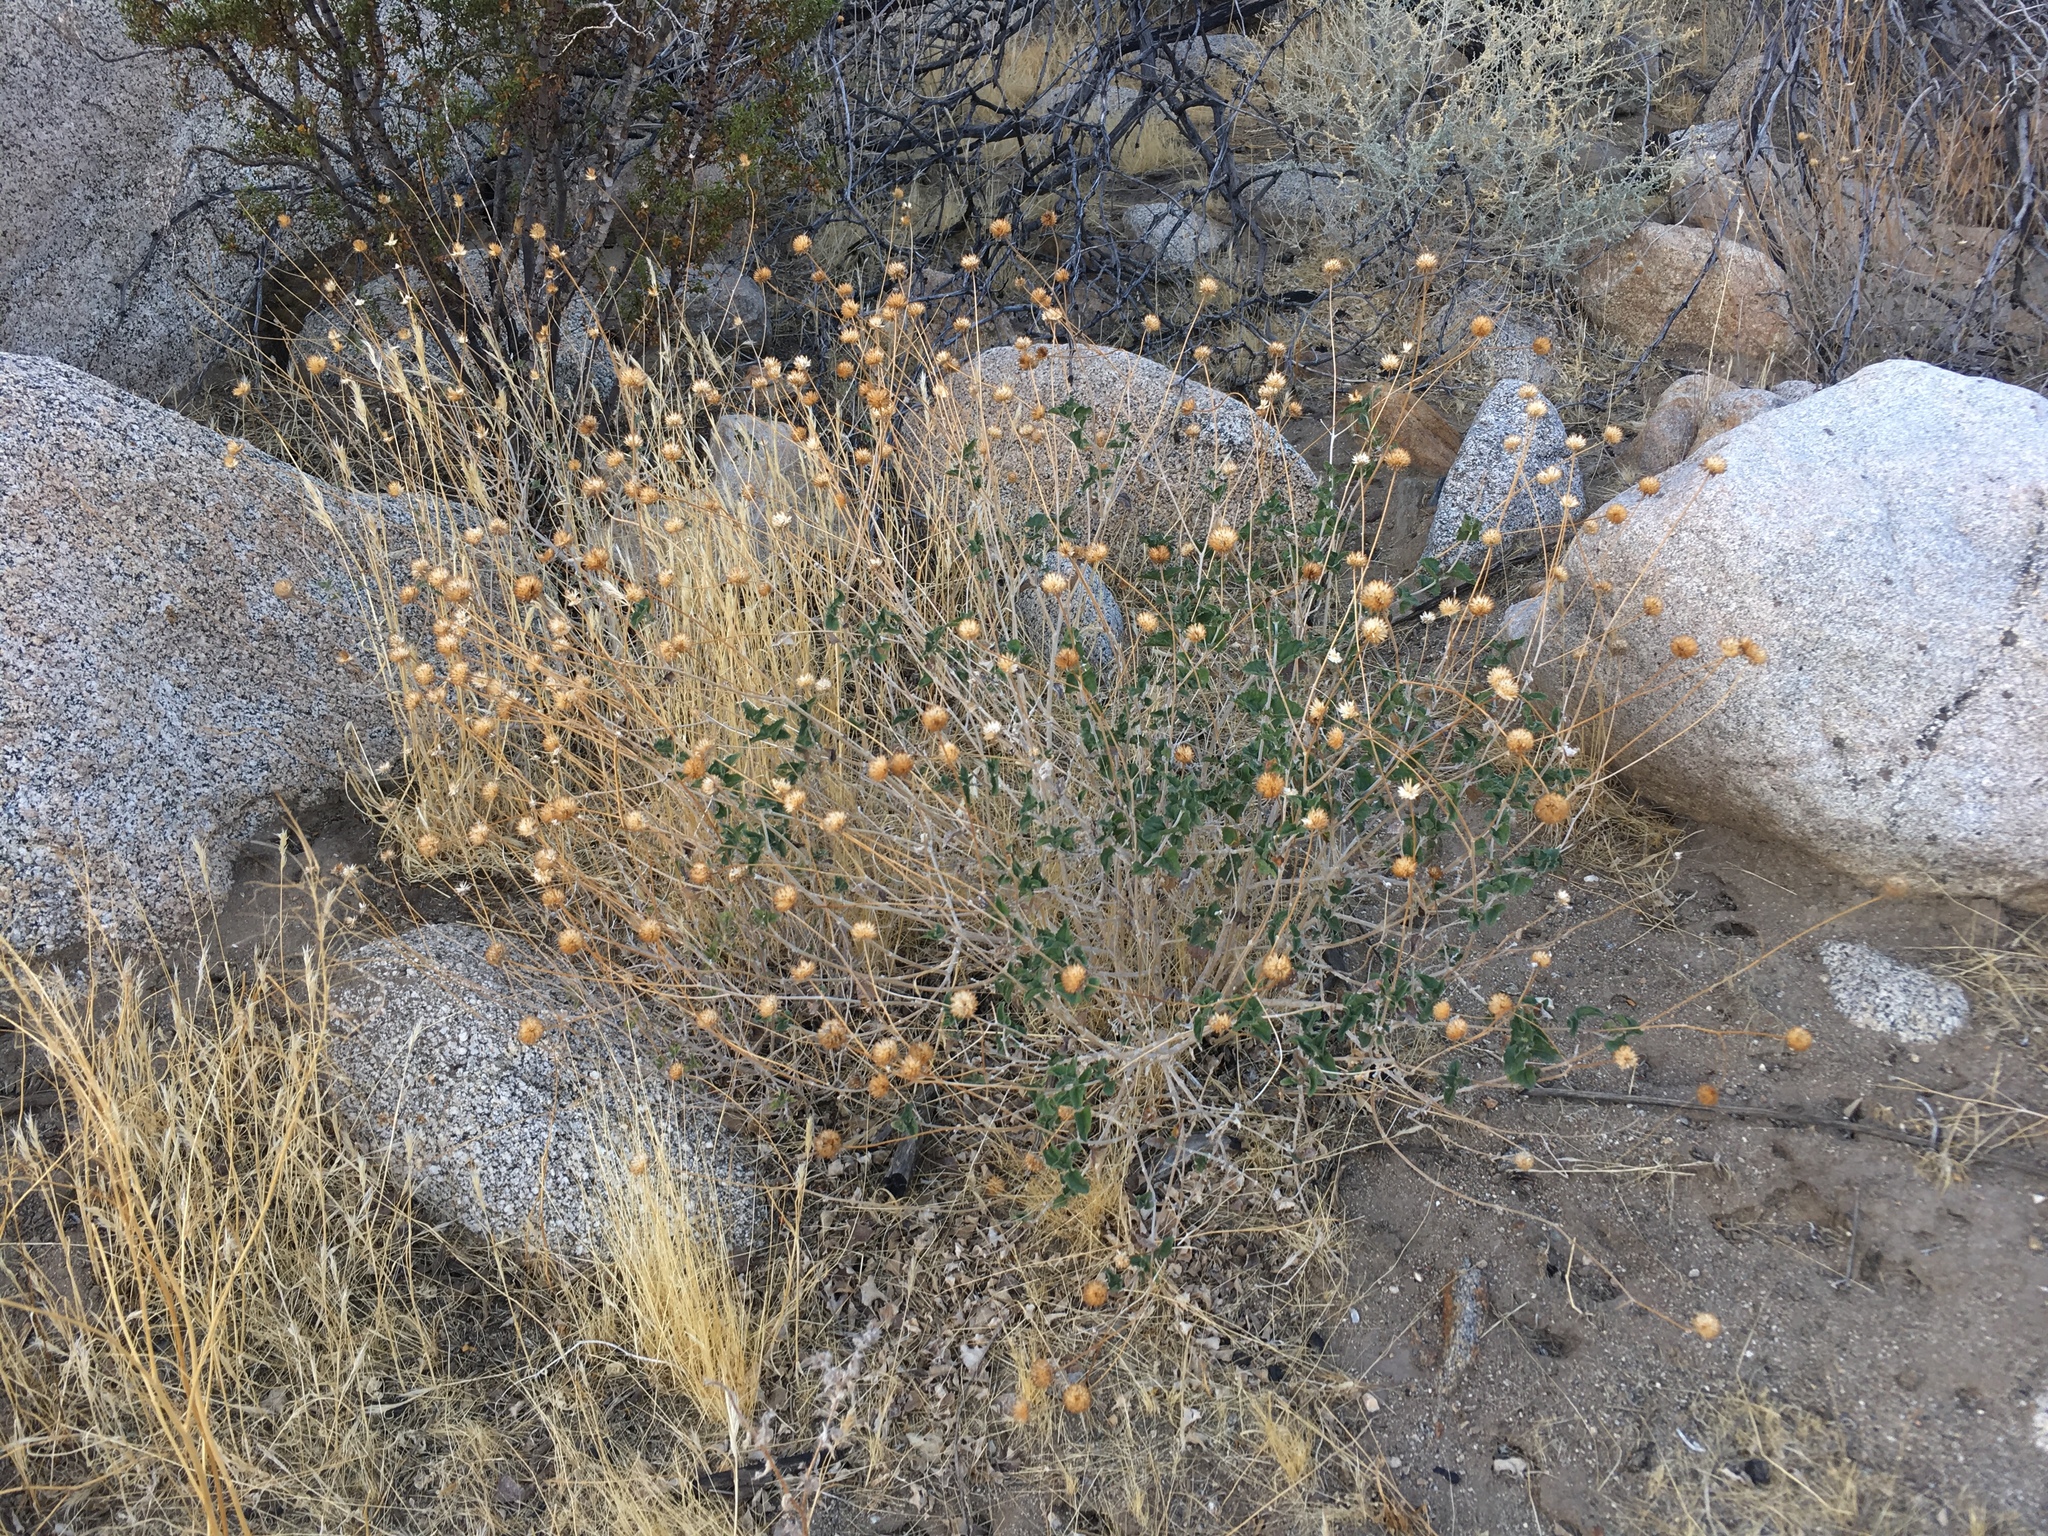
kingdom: Plantae
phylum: Tracheophyta
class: Magnoliopsida
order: Asterales
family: Asteraceae
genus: Bahiopsis
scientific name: Bahiopsis parishii
